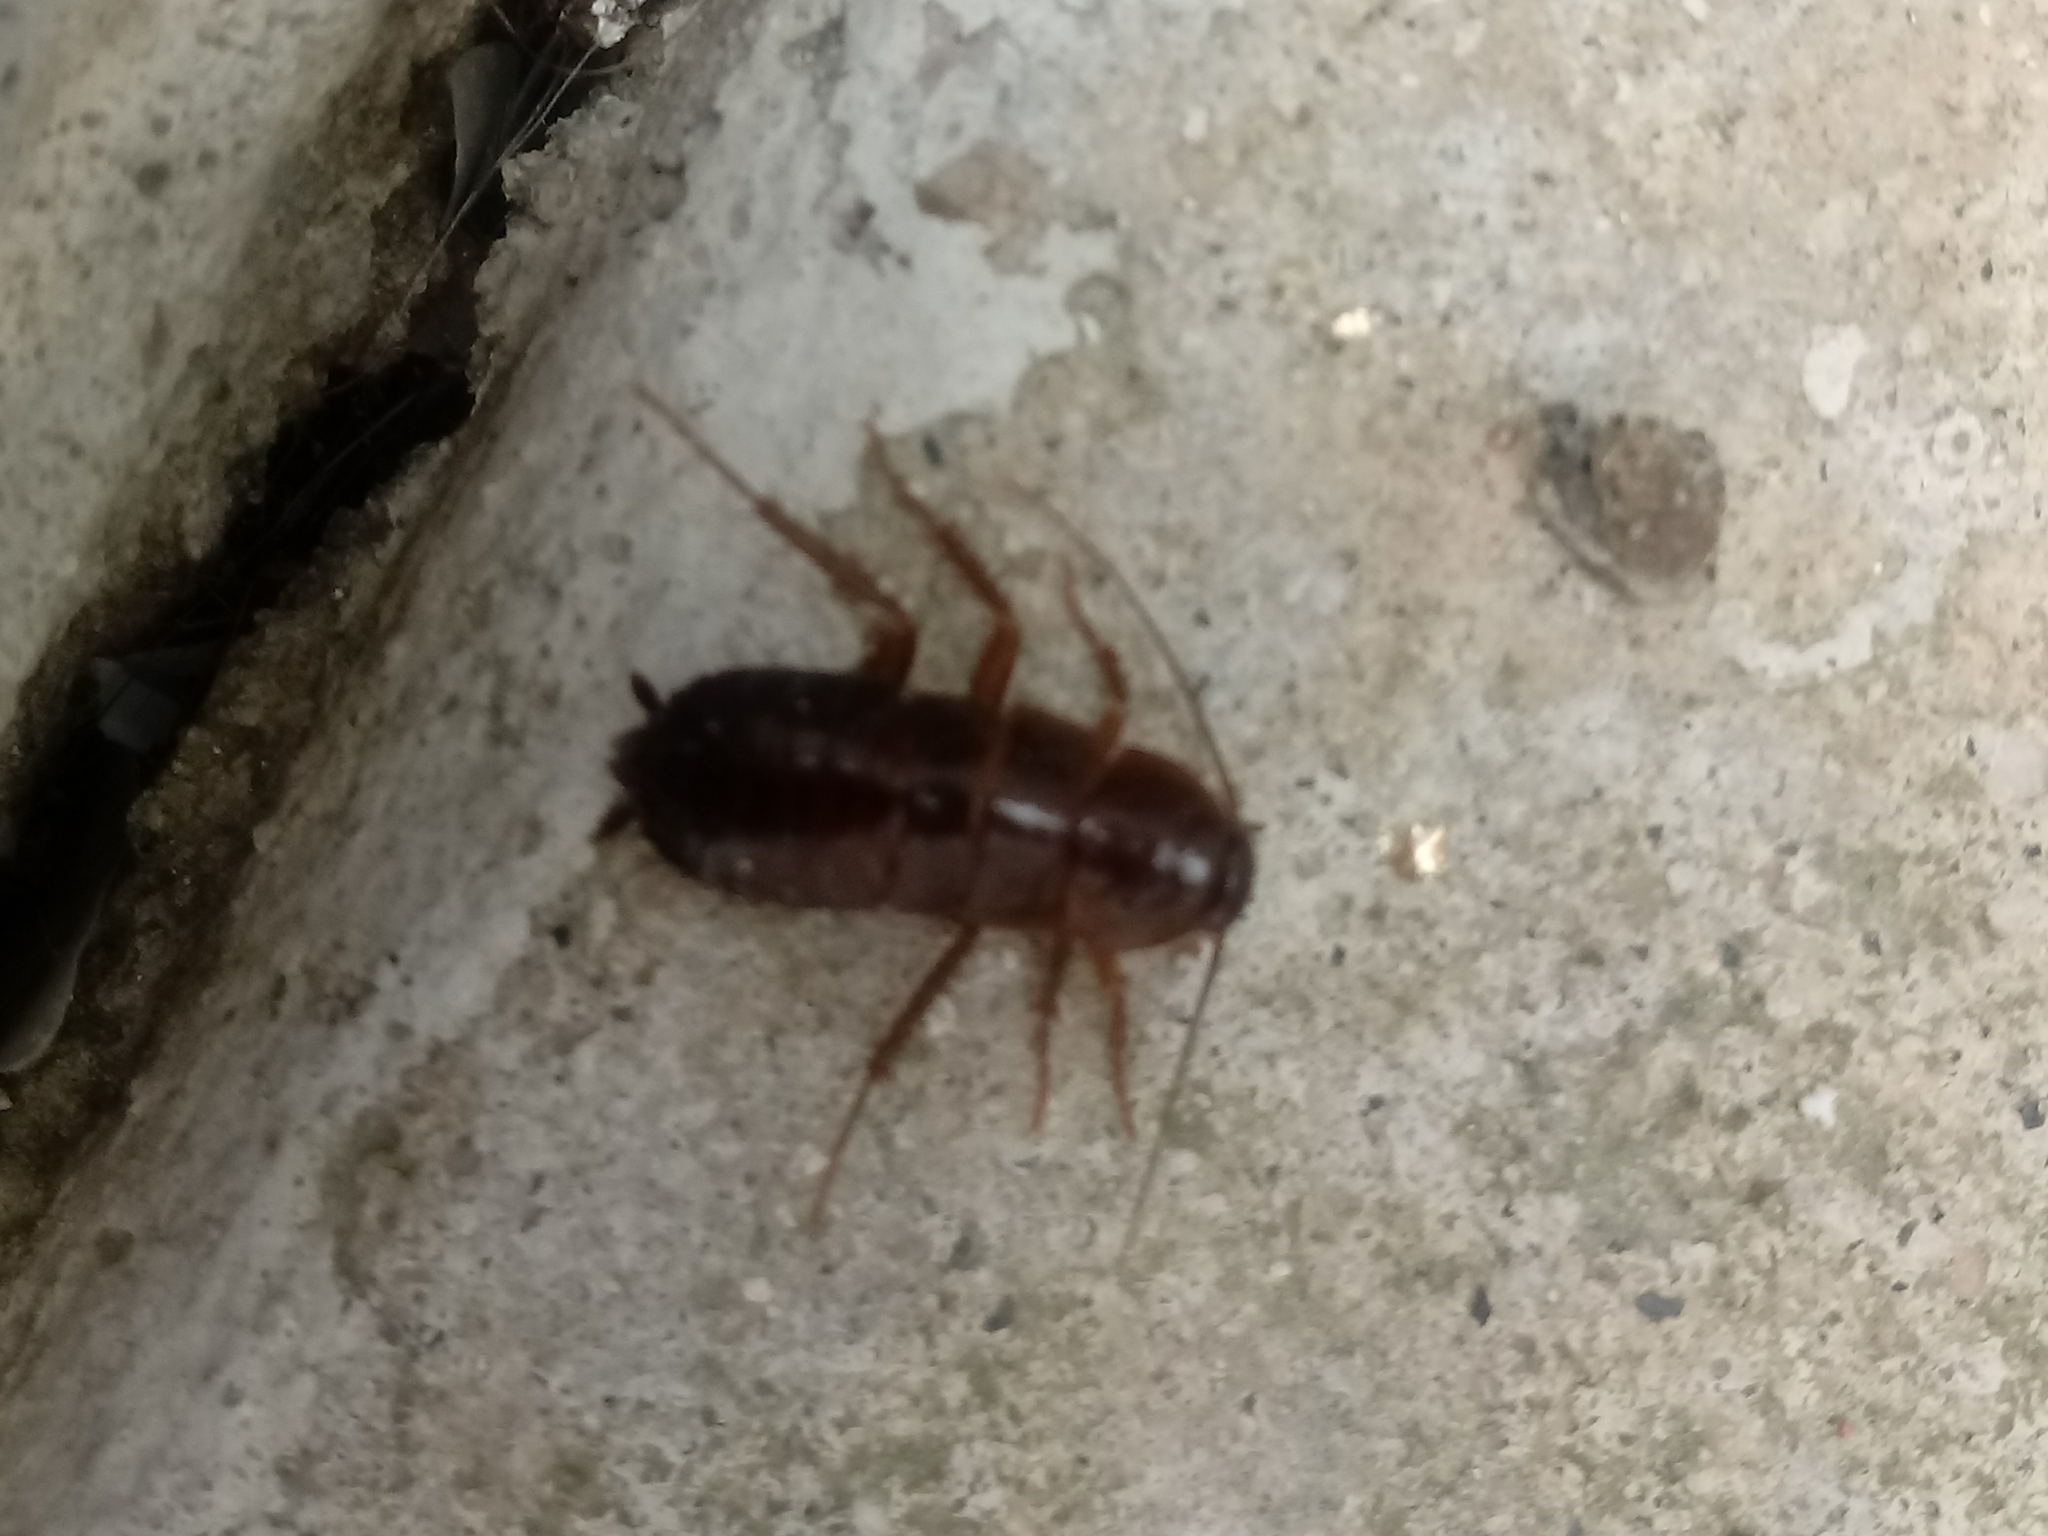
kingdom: Animalia
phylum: Arthropoda
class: Insecta
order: Blattodea
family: Blattidae
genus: Blatta
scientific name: Blatta orientalis
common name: Oriental cockroach
